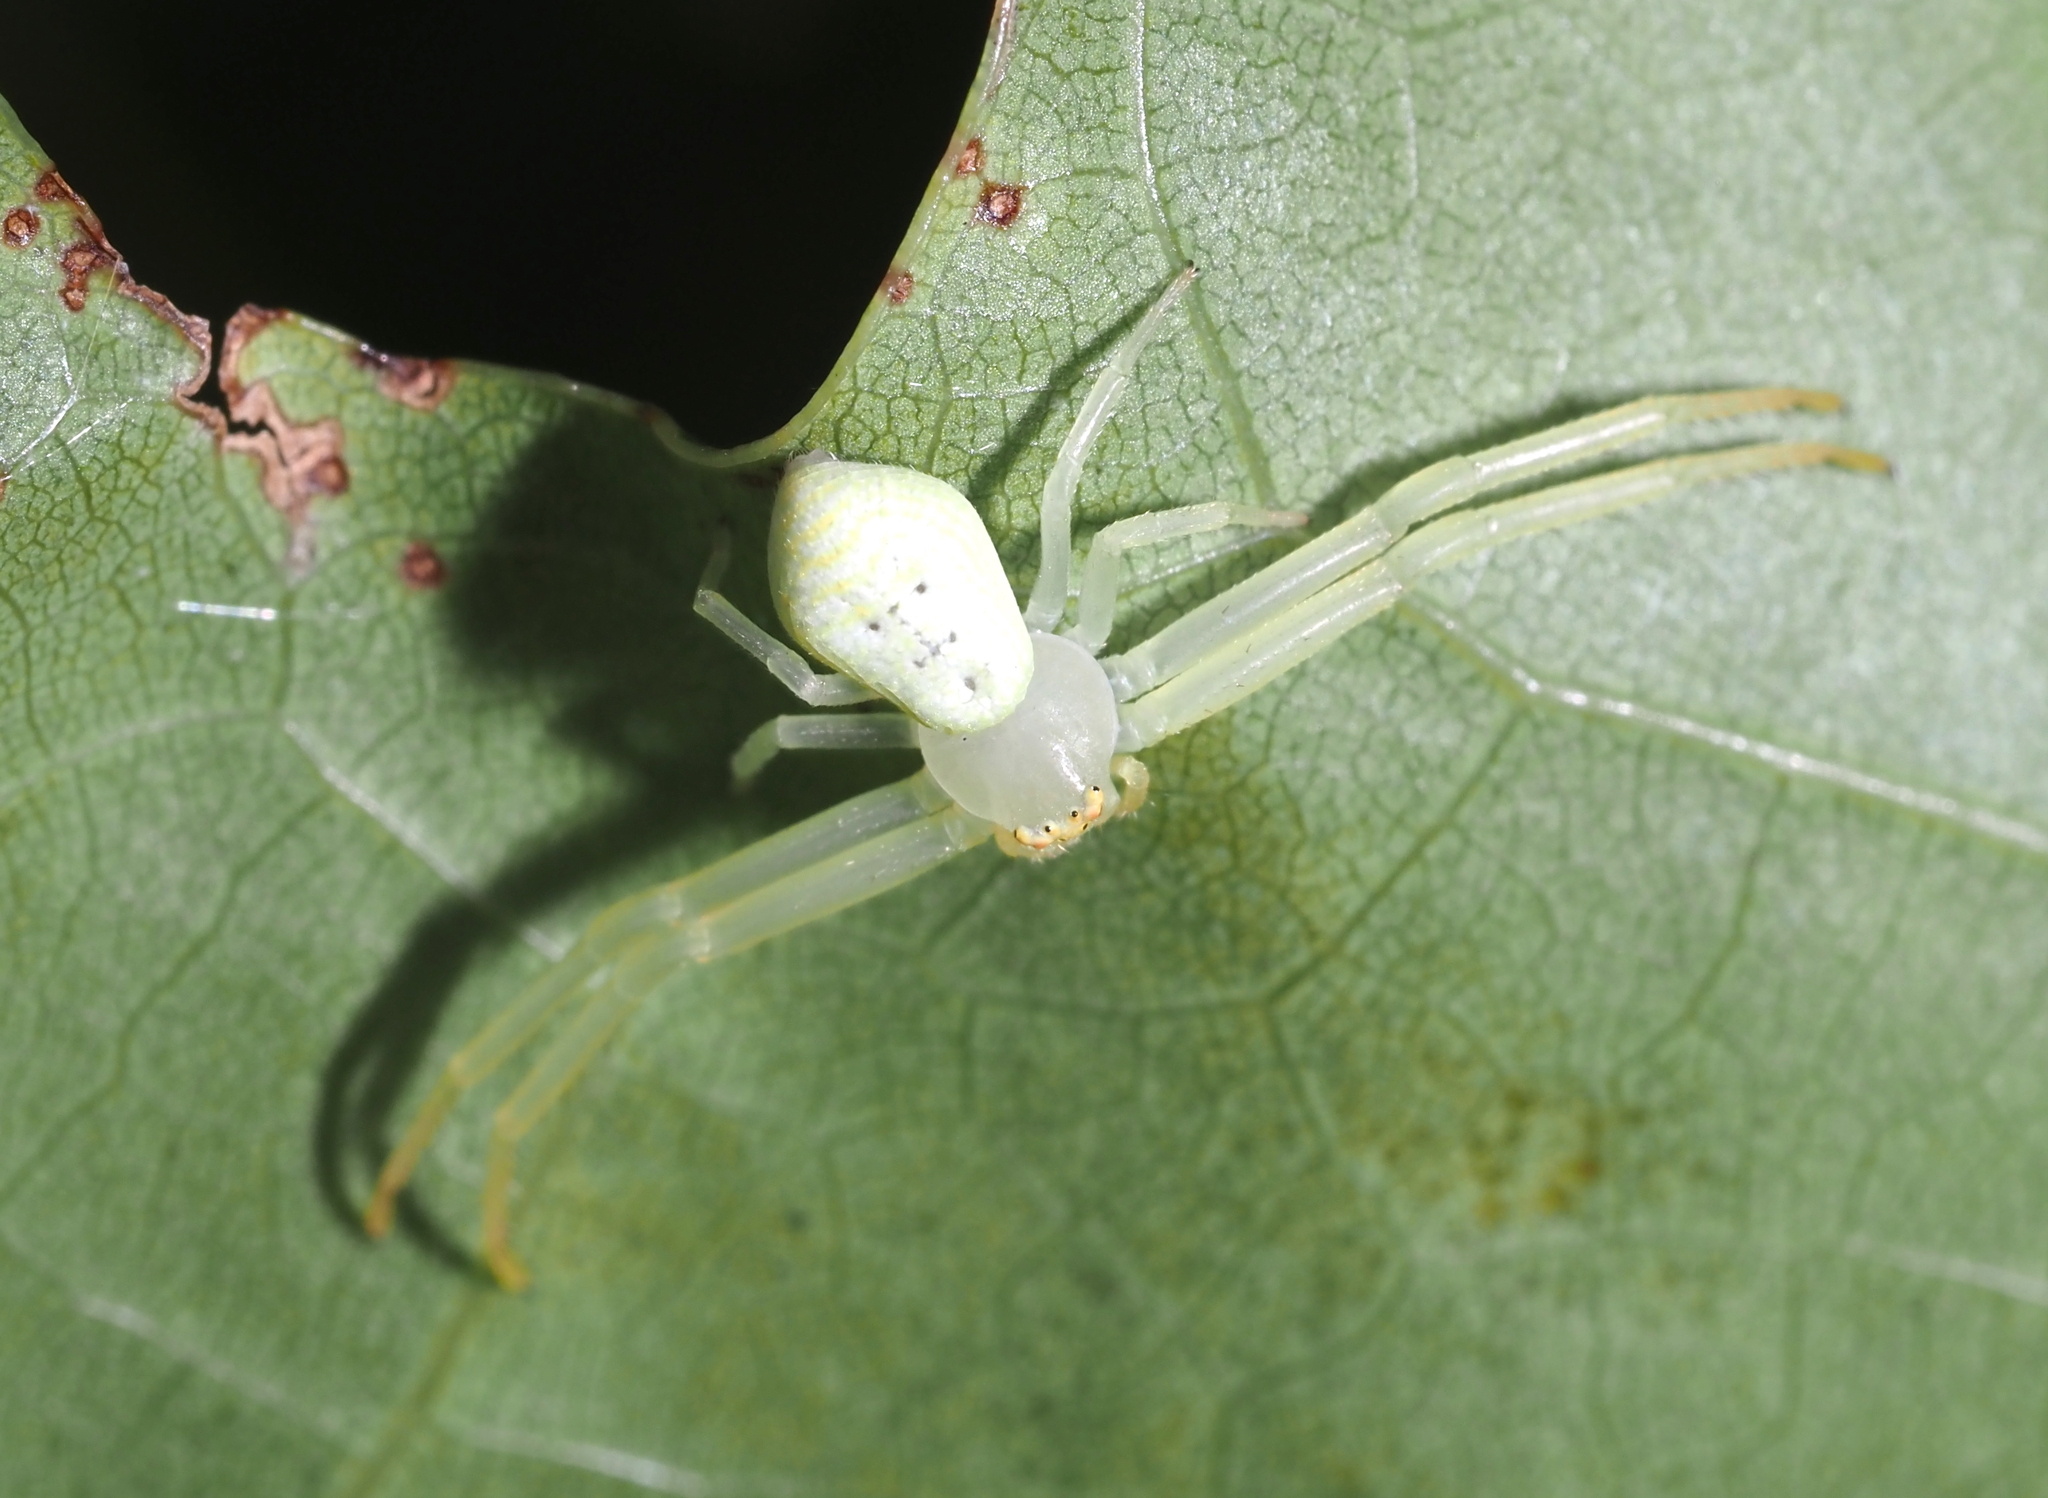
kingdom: Animalia
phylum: Arthropoda
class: Arachnida
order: Araneae
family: Thomisidae
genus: Misumessus
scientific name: Misumessus oblongus
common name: American green crab spider
